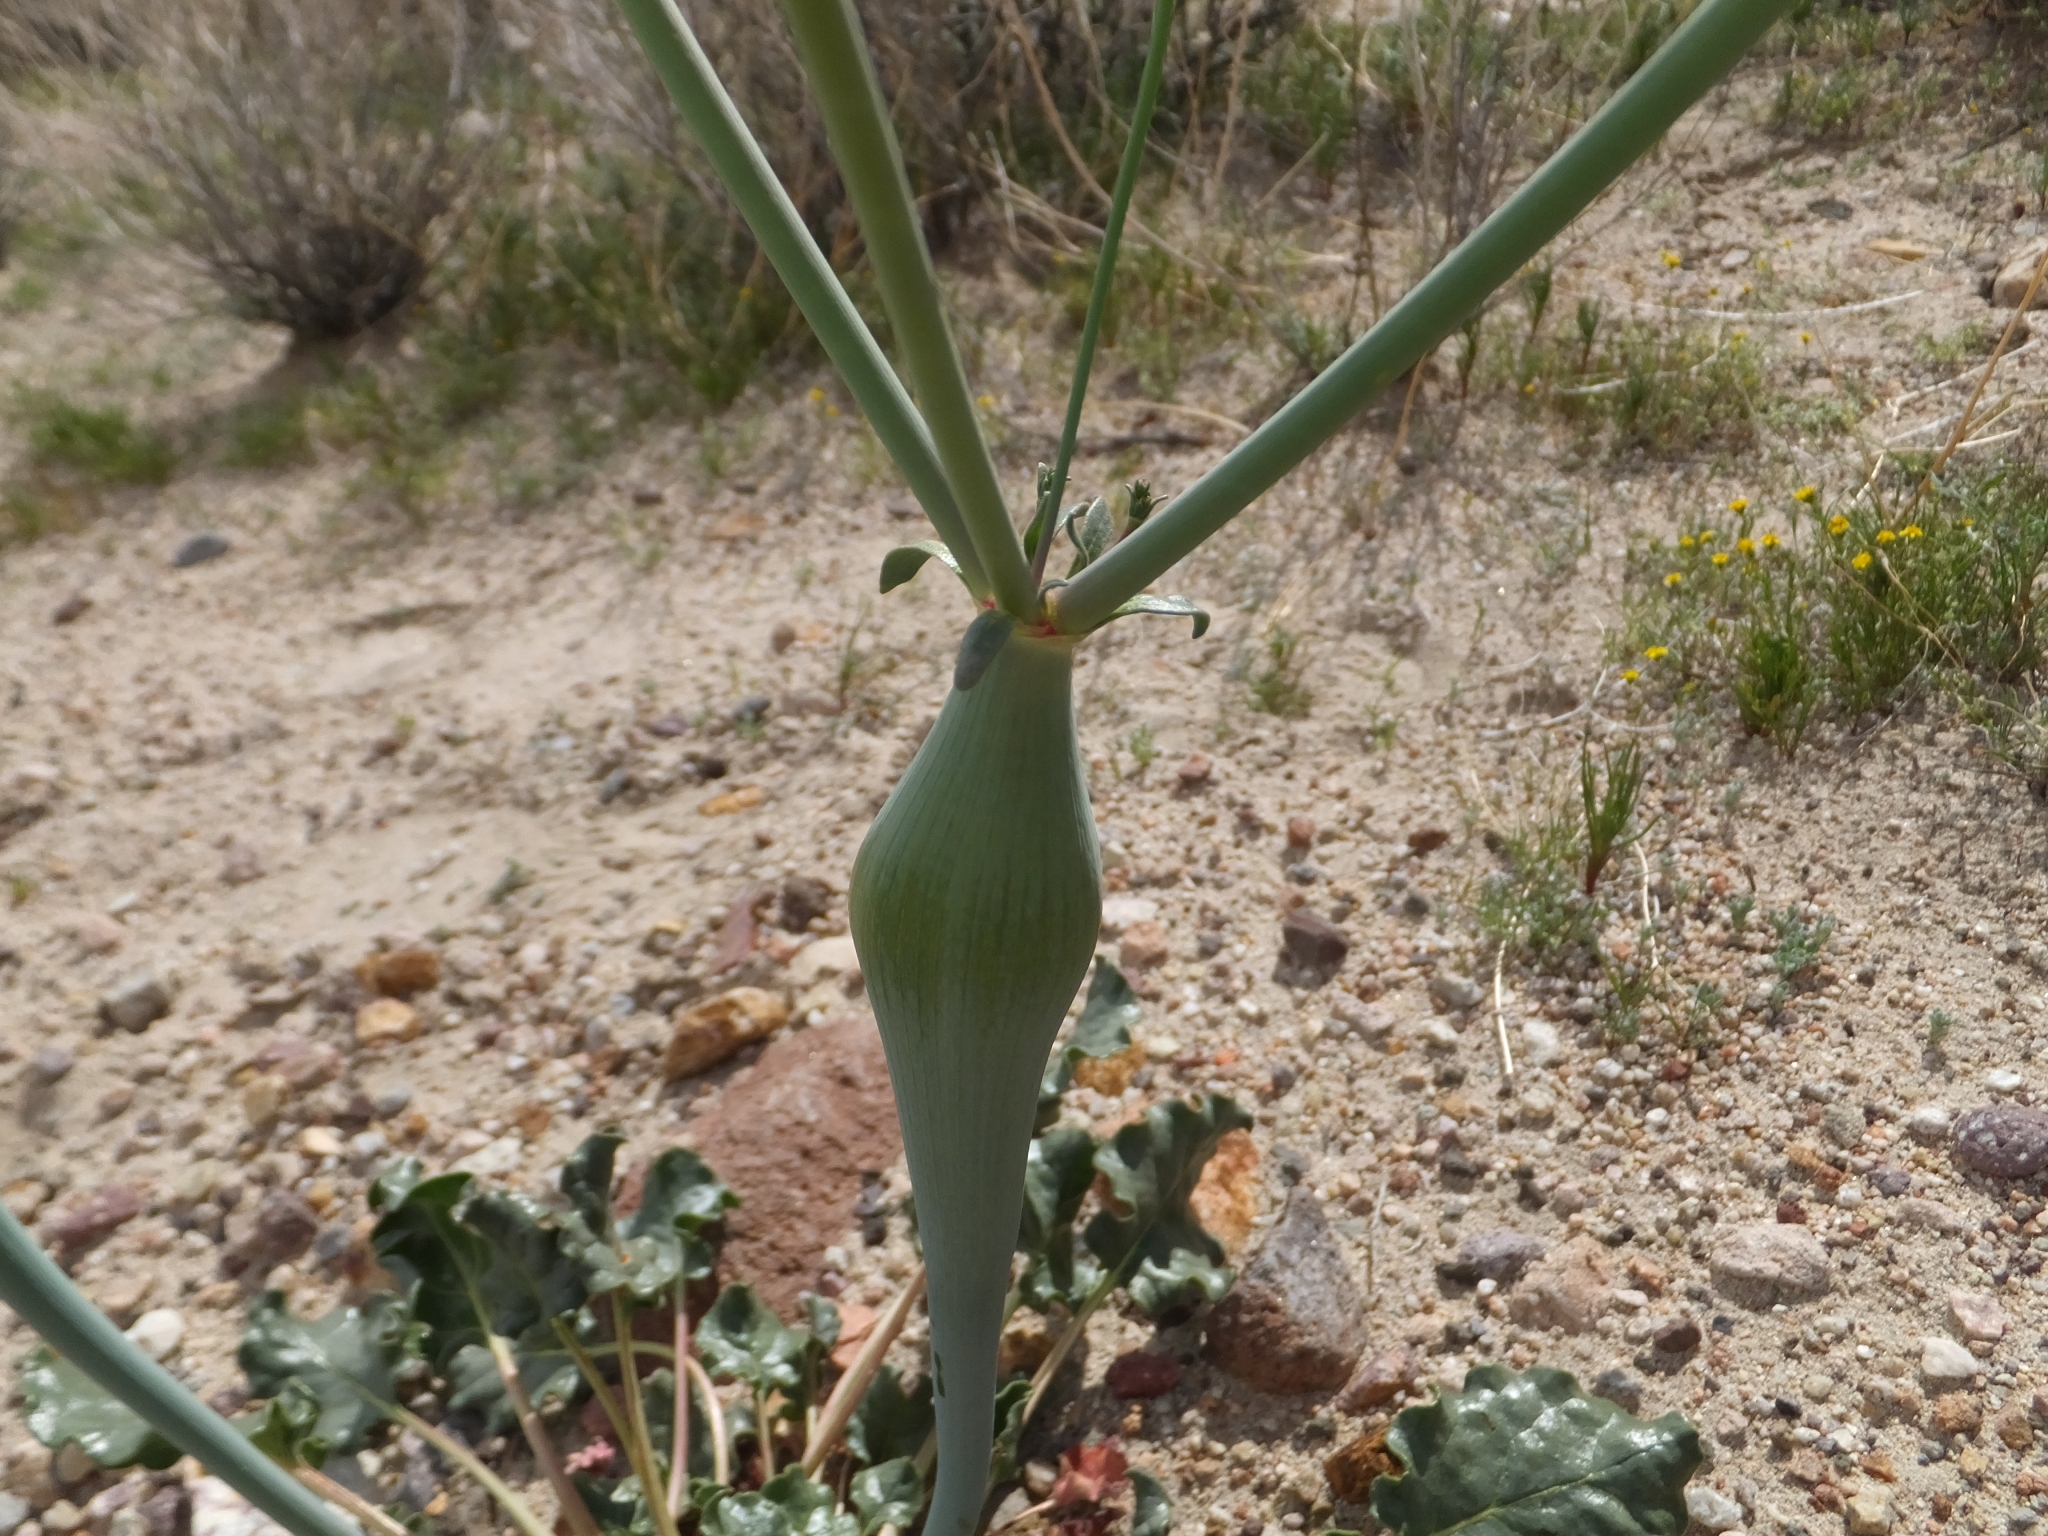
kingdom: Plantae
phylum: Tracheophyta
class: Magnoliopsida
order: Caryophyllales
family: Polygonaceae
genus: Eriogonum
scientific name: Eriogonum inflatum
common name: Desert trumpet
